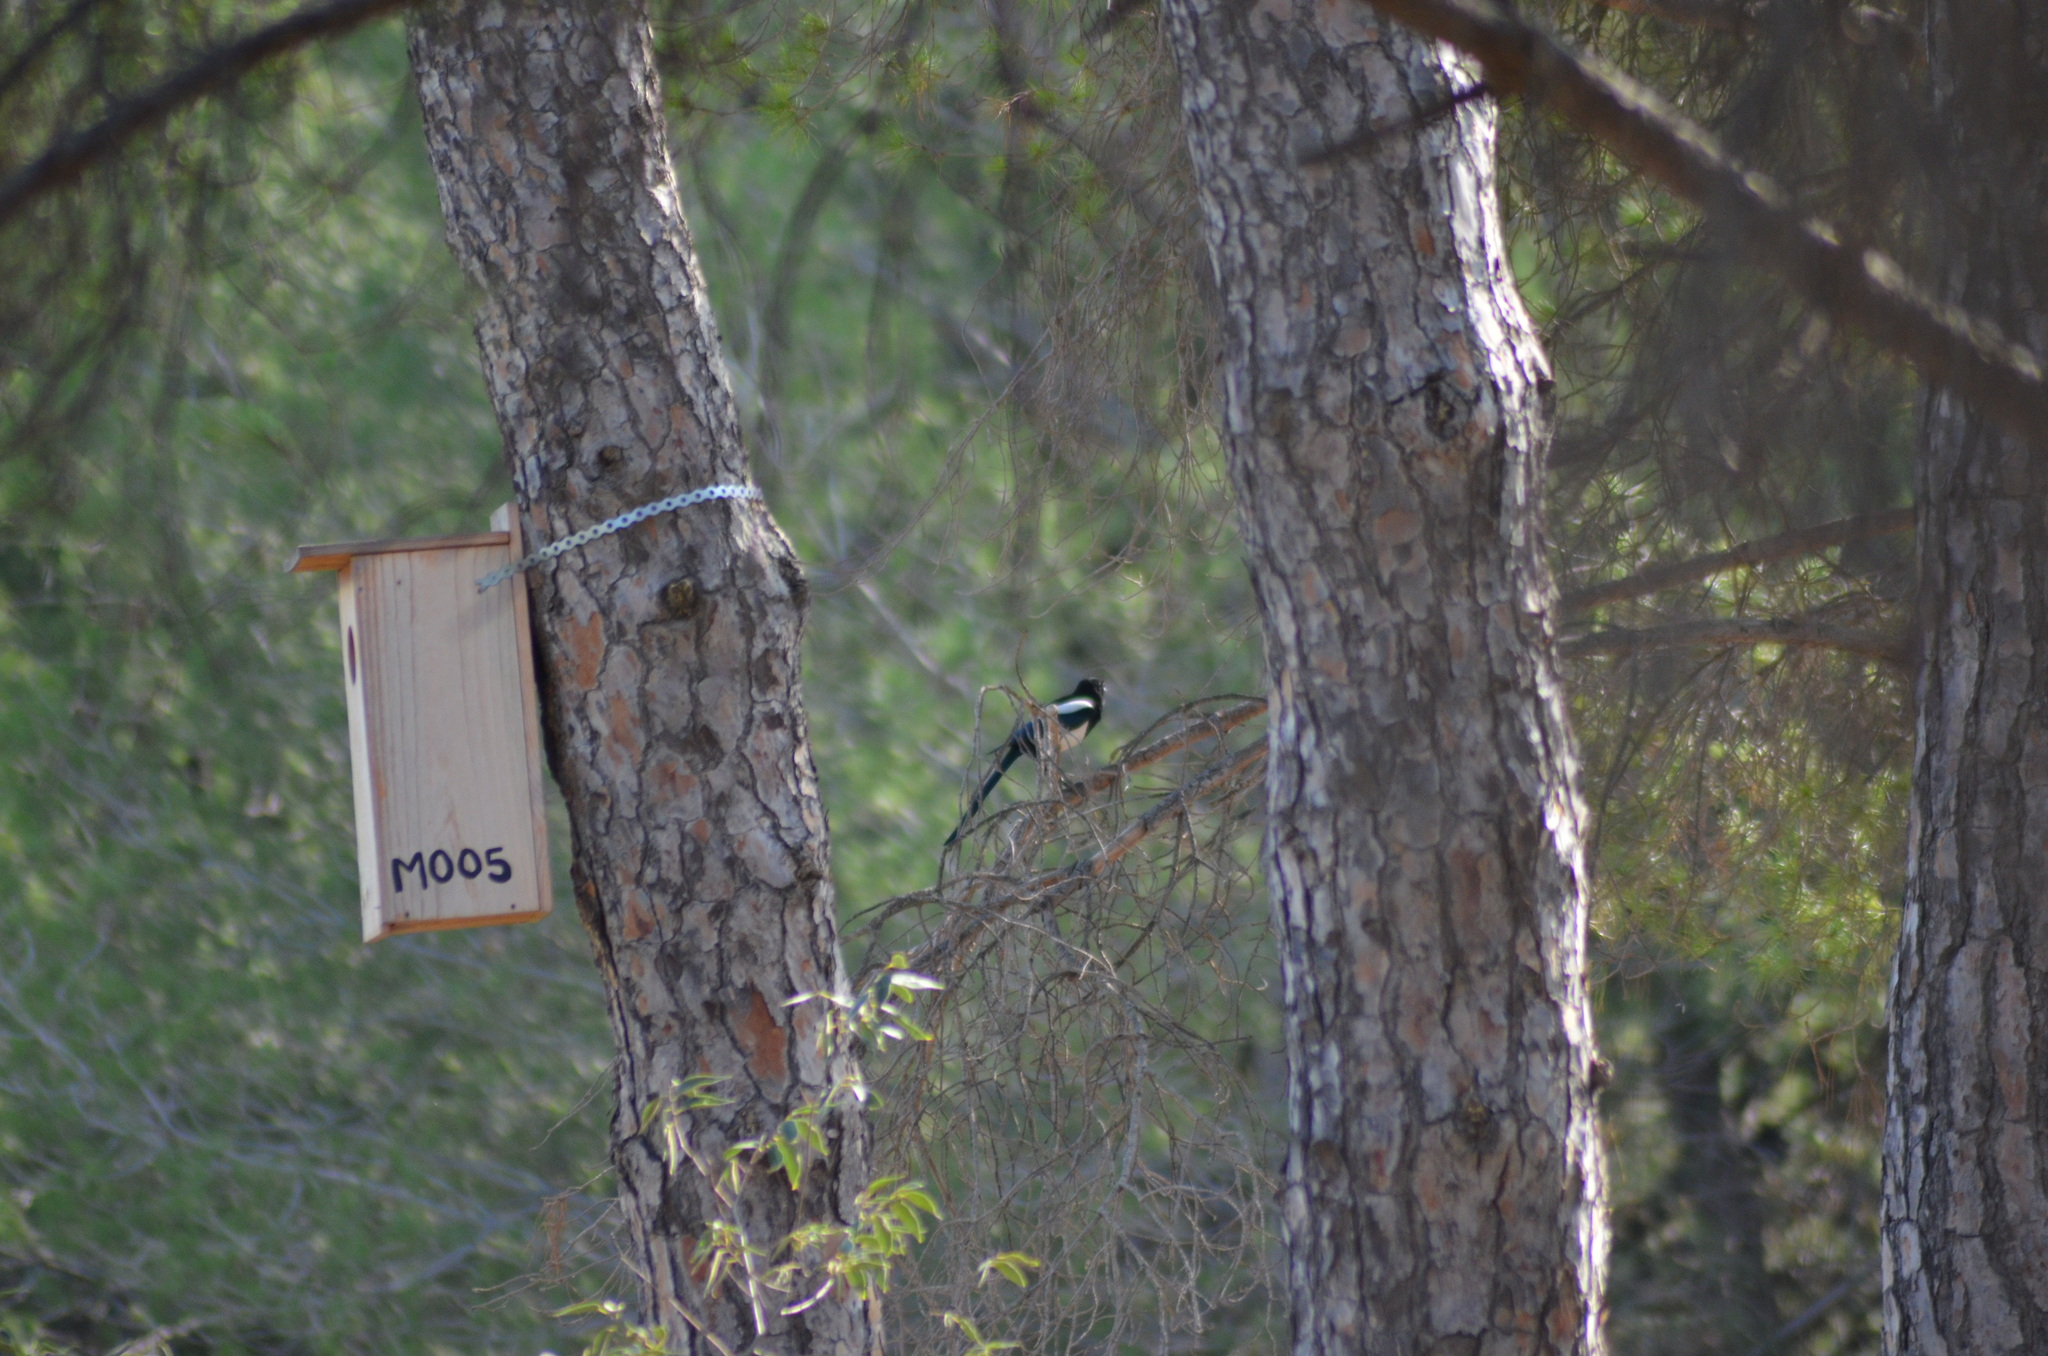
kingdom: Animalia
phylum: Chordata
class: Aves
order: Passeriformes
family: Corvidae
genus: Pica
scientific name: Pica pica
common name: Eurasian magpie
